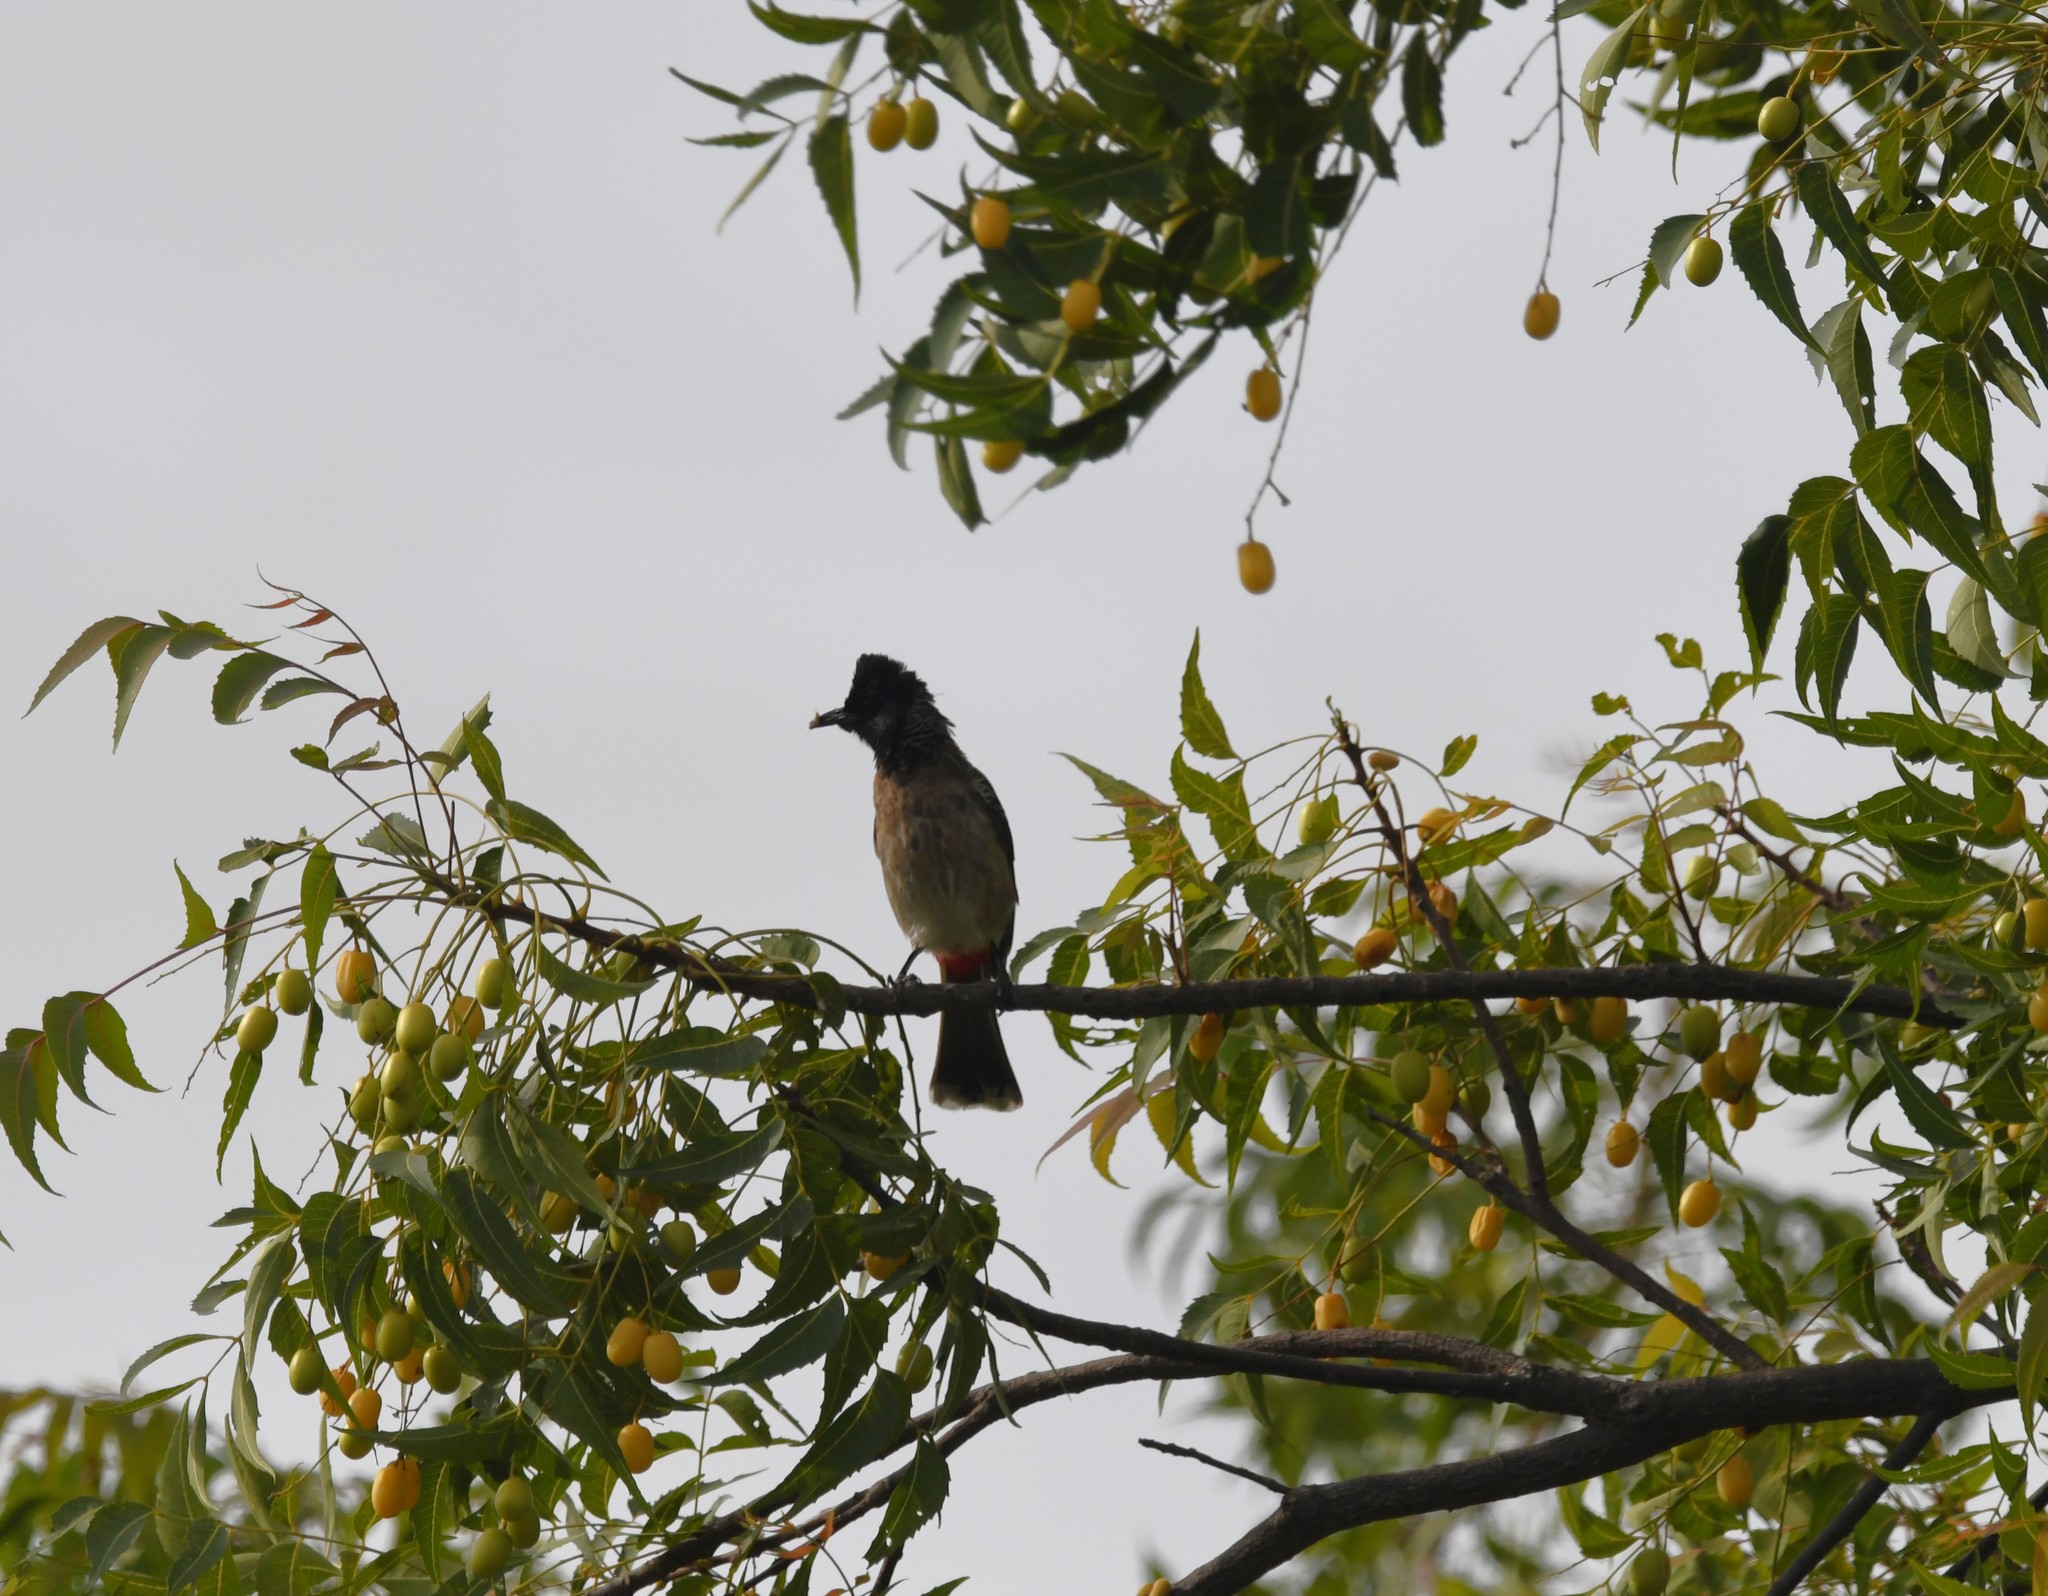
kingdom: Animalia
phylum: Chordata
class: Aves
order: Passeriformes
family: Pycnonotidae
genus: Pycnonotus
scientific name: Pycnonotus cafer
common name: Red-vented bulbul
